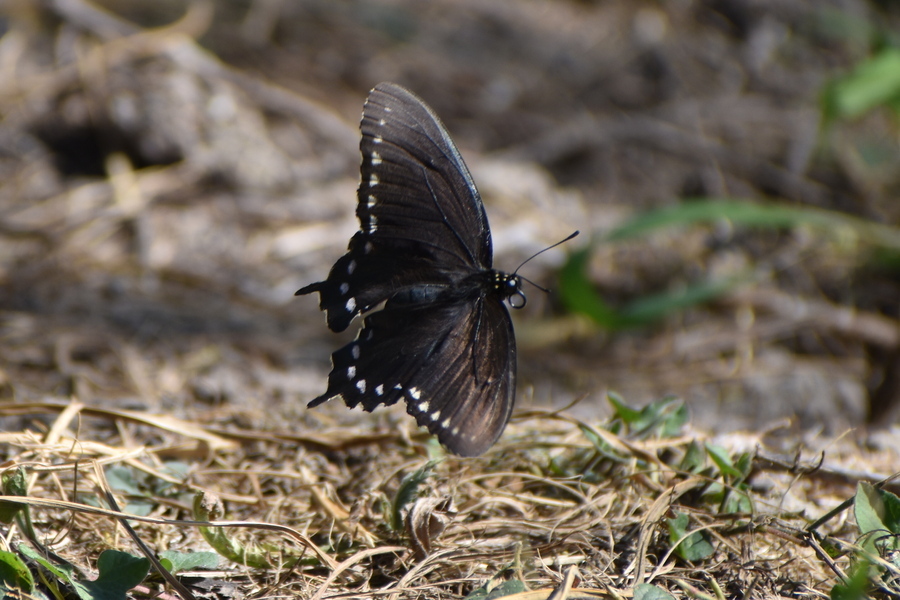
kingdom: Animalia
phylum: Arthropoda
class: Insecta
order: Lepidoptera
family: Papilionidae
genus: Battus
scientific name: Battus philenor
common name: Pipevine swallowtail
